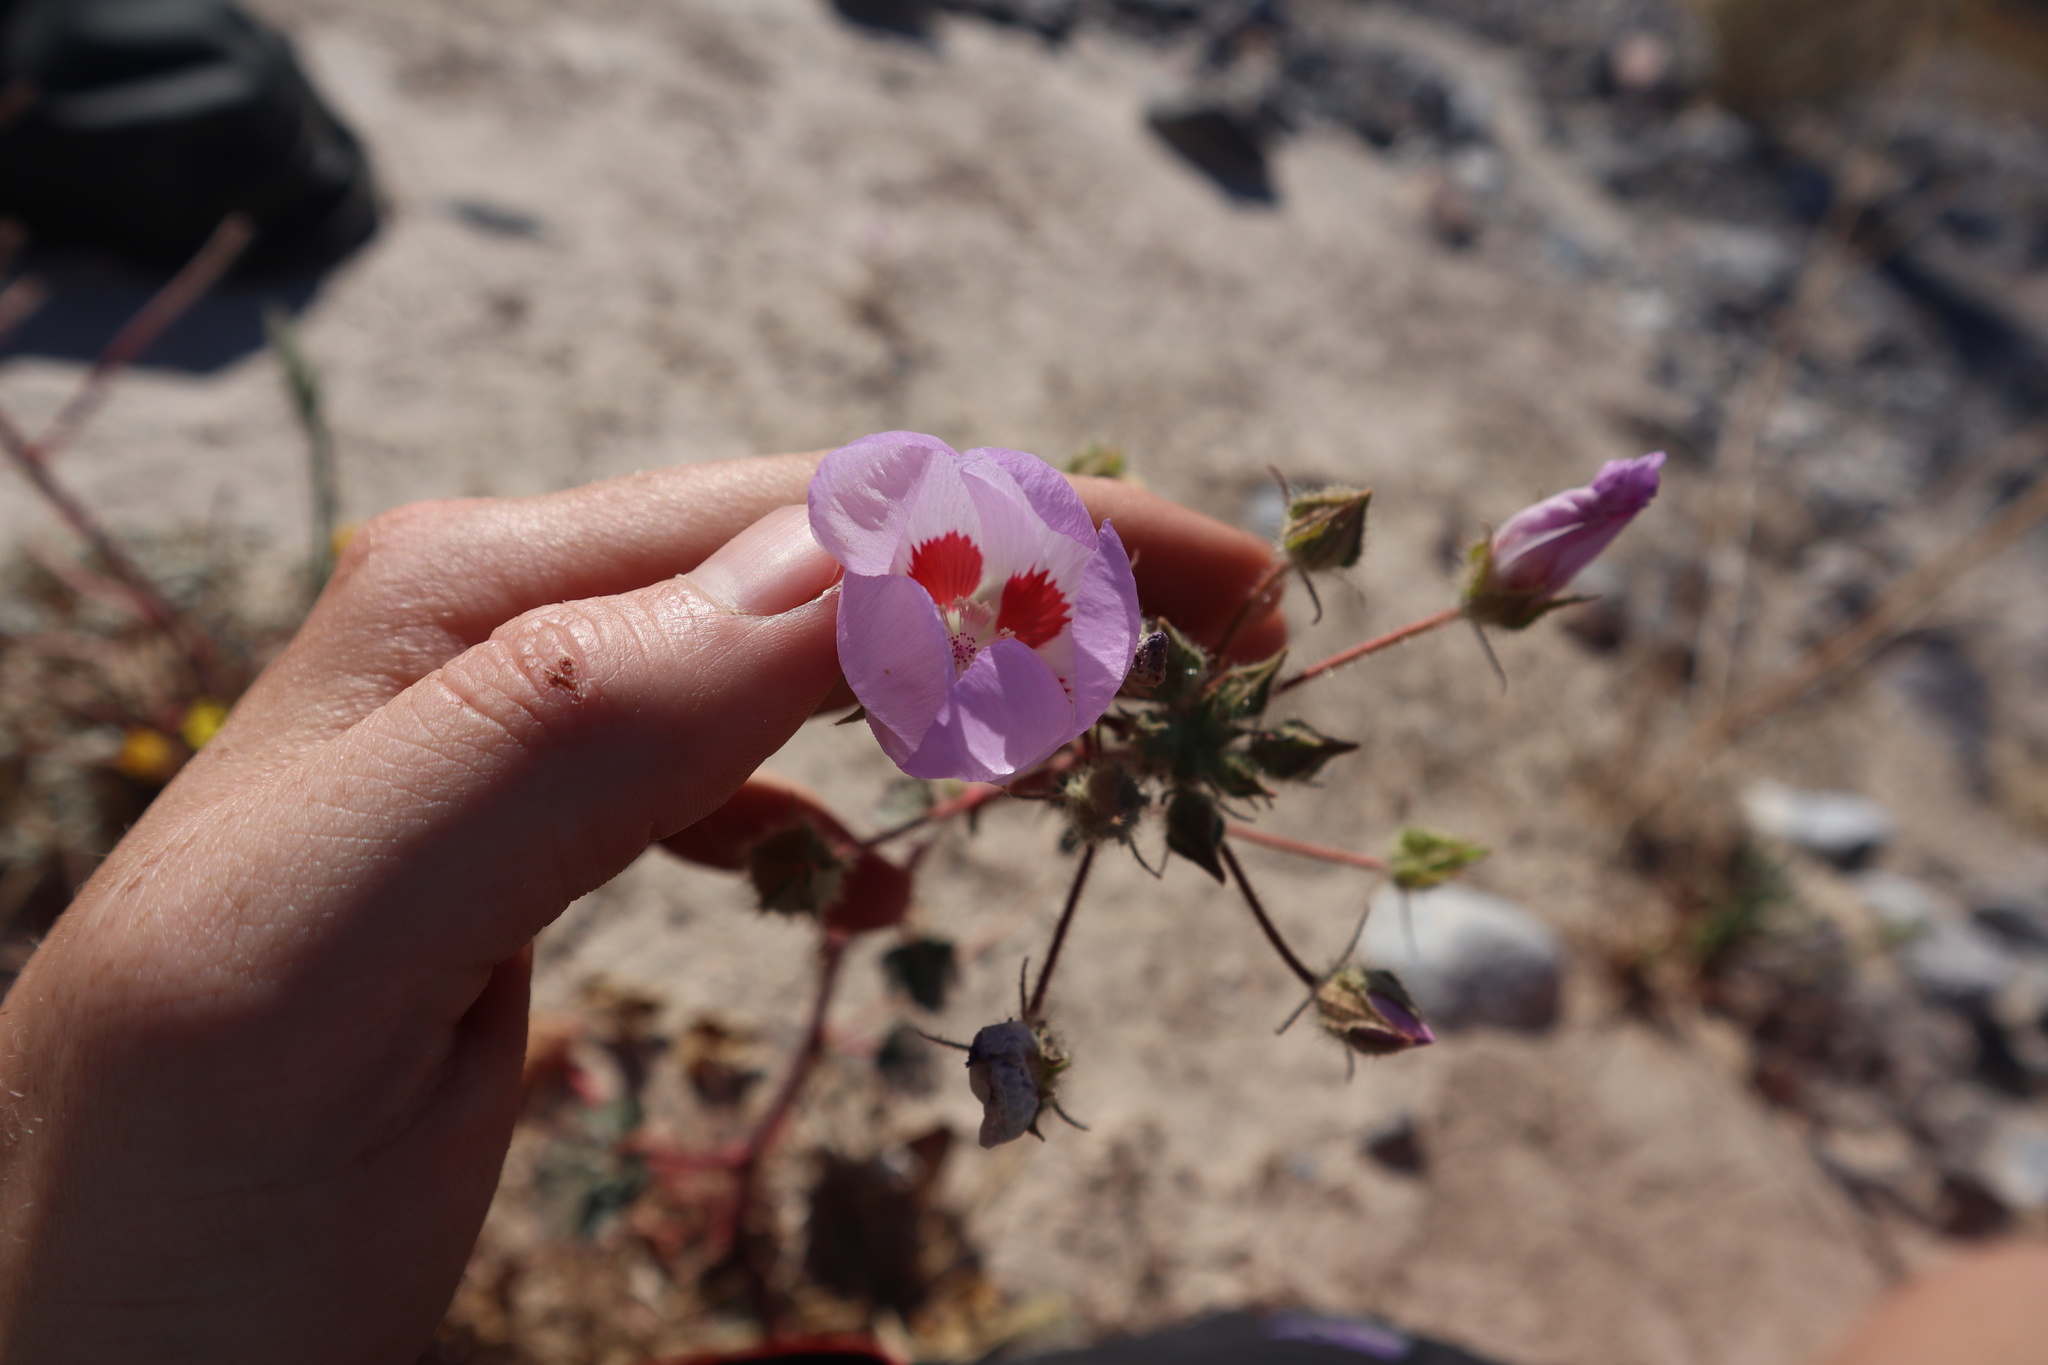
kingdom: Plantae
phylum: Tracheophyta
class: Magnoliopsida
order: Malvales
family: Malvaceae
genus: Eremalche
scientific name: Eremalche rotundifolia
